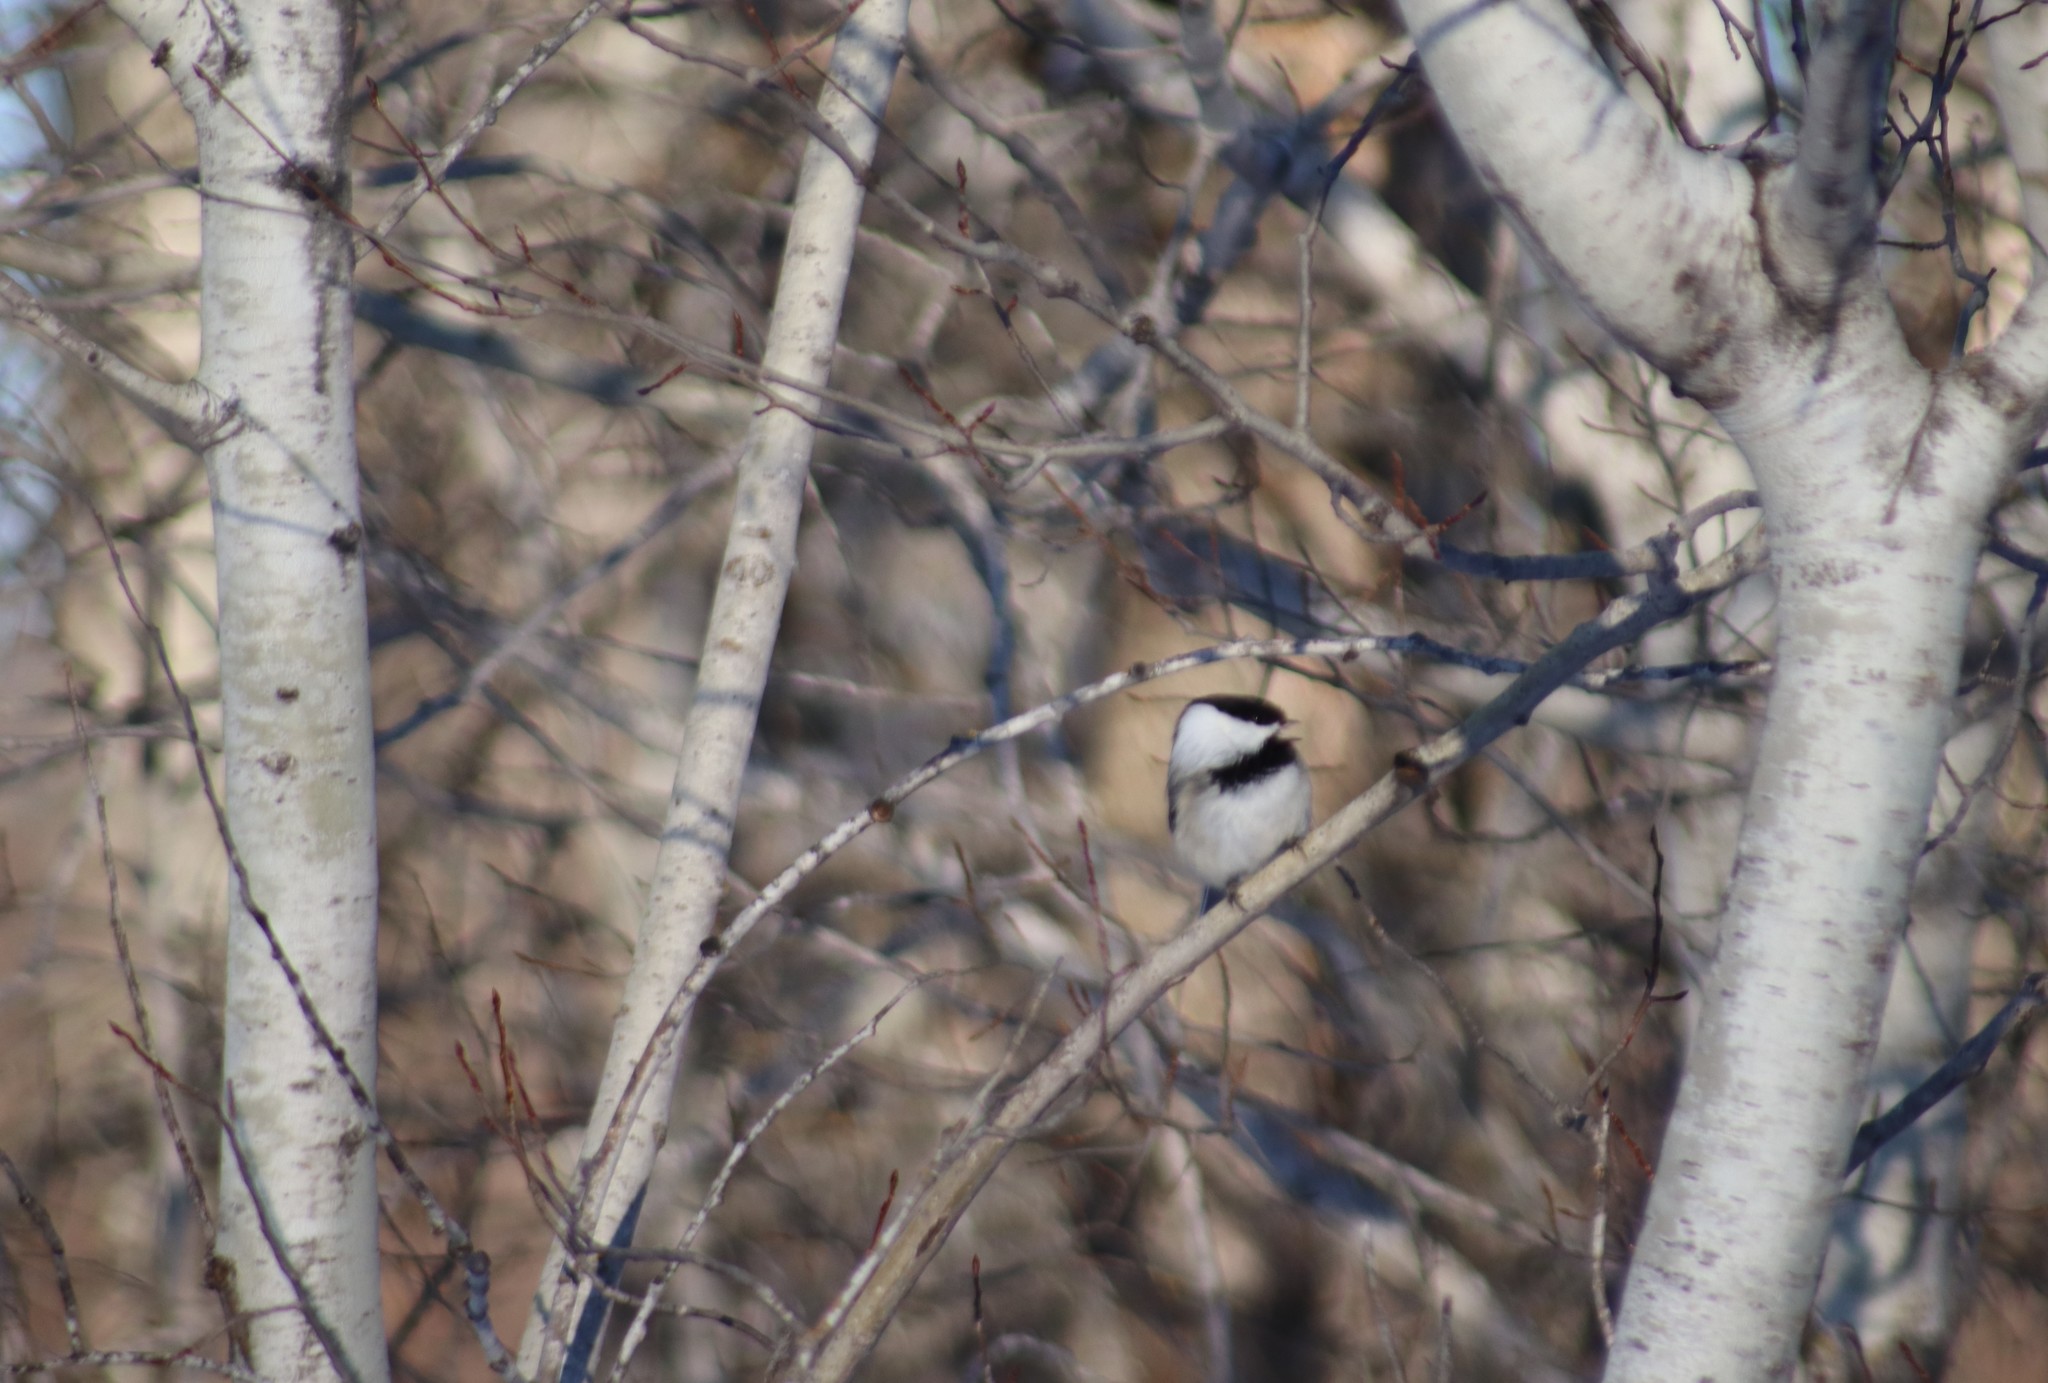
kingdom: Animalia
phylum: Chordata
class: Aves
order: Passeriformes
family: Paridae
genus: Poecile
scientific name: Poecile atricapillus
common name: Black-capped chickadee
